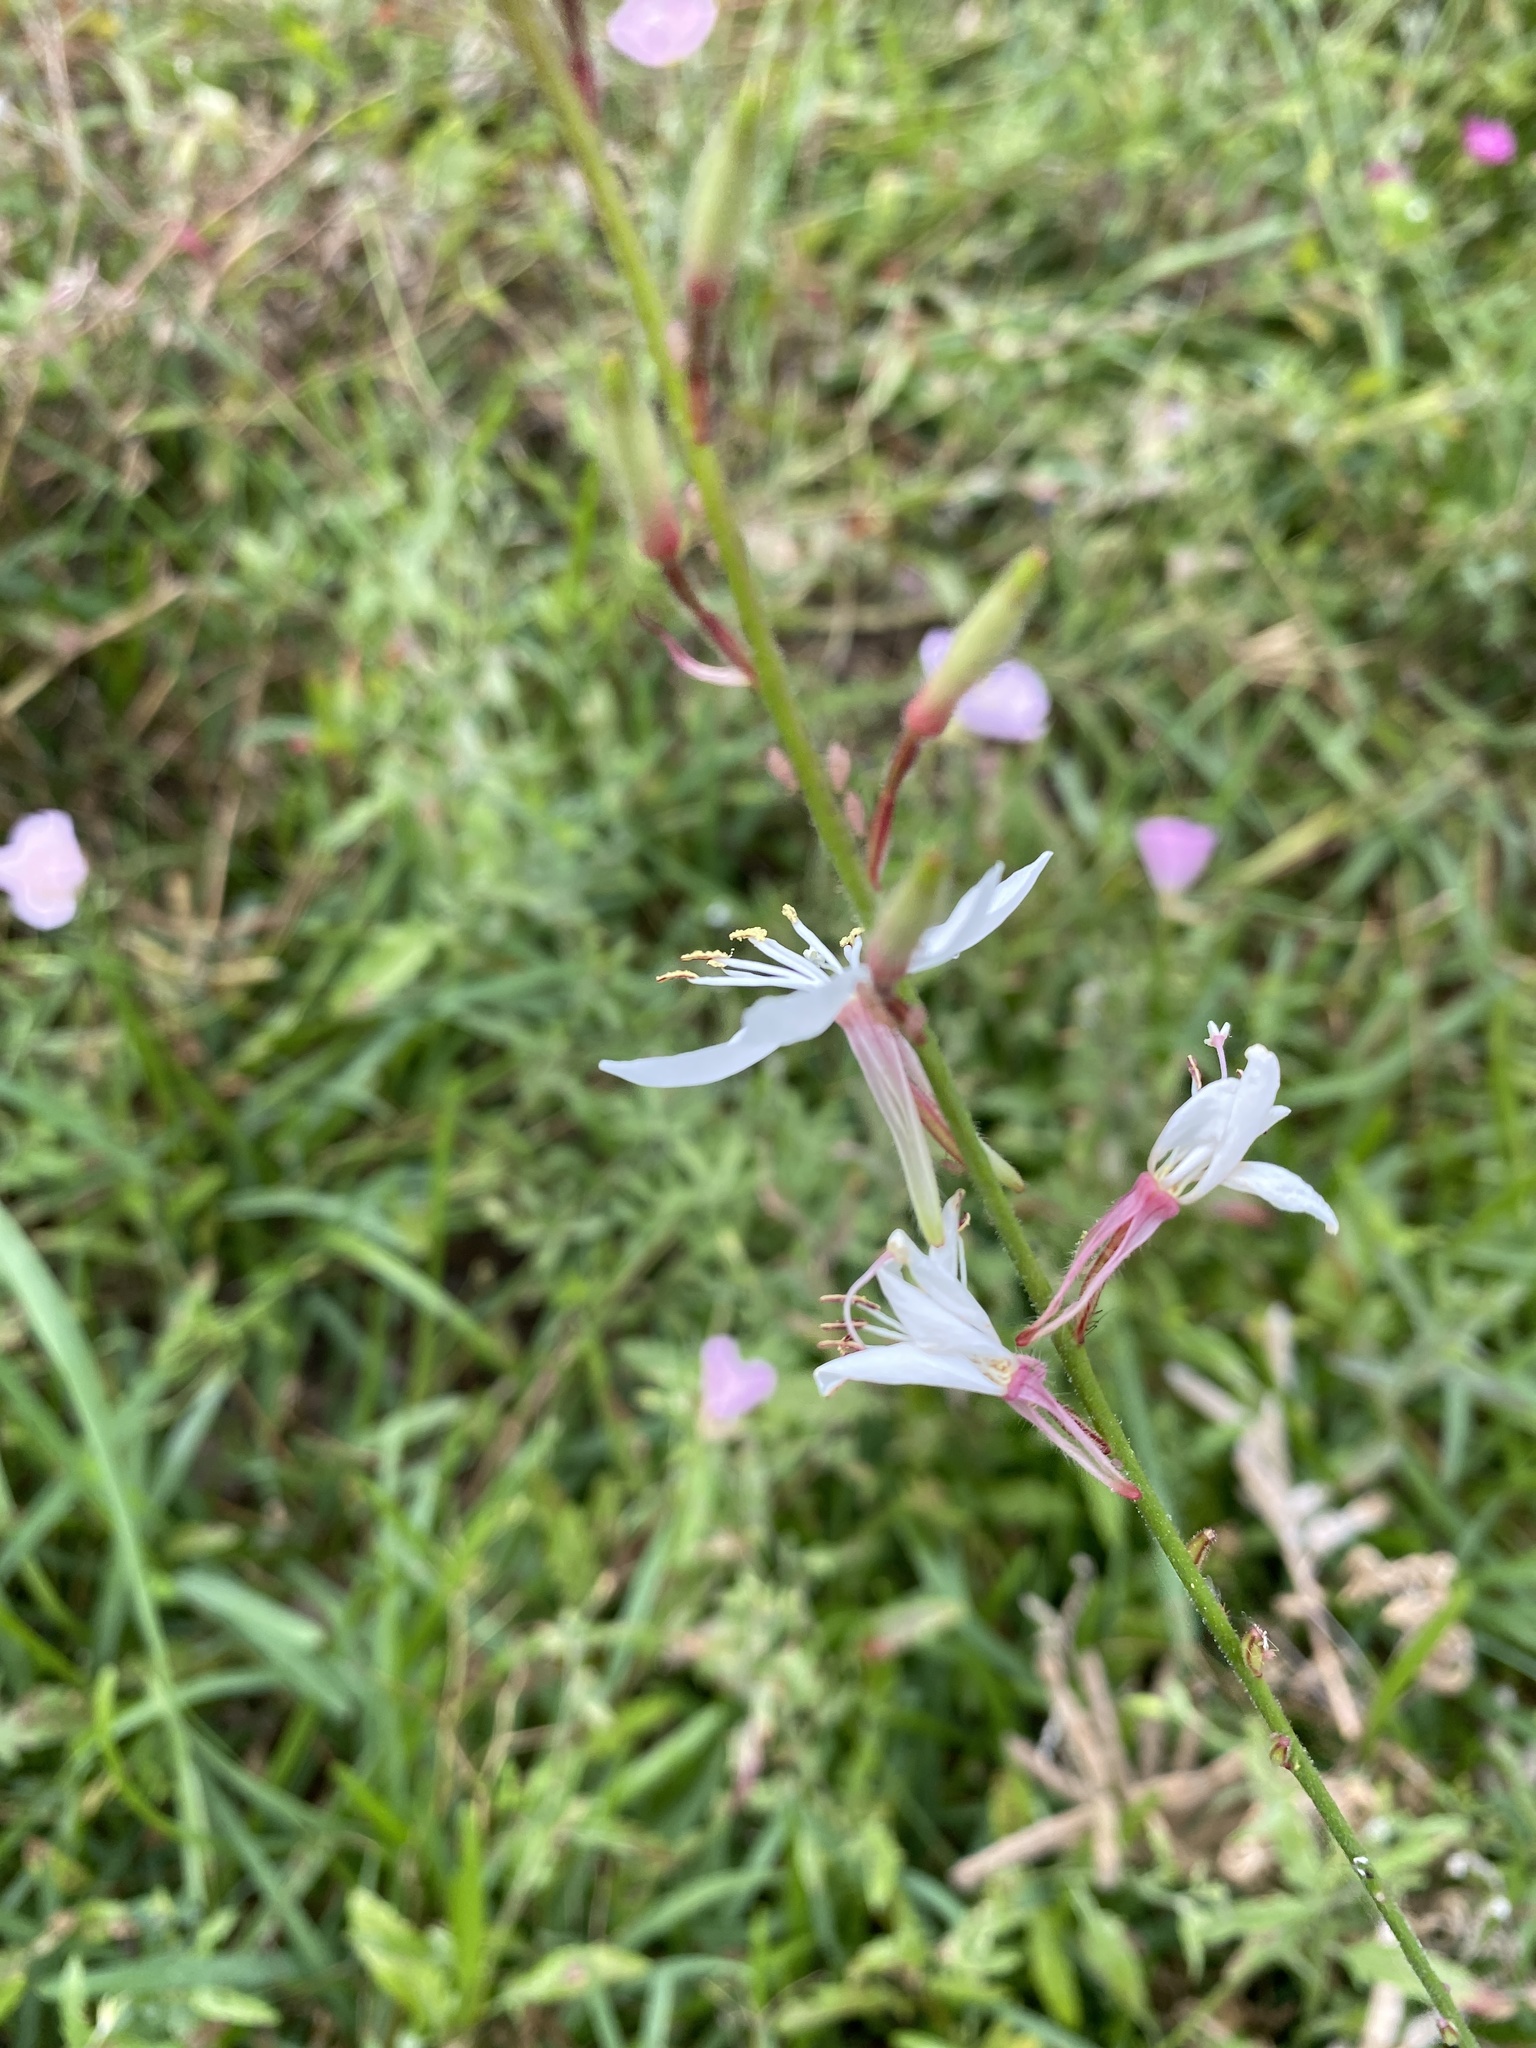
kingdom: Plantae
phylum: Tracheophyta
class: Magnoliopsida
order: Myrtales
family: Onagraceae
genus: Oenothera
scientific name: Oenothera lindheimeri
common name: Lindheimer's beeblossom
